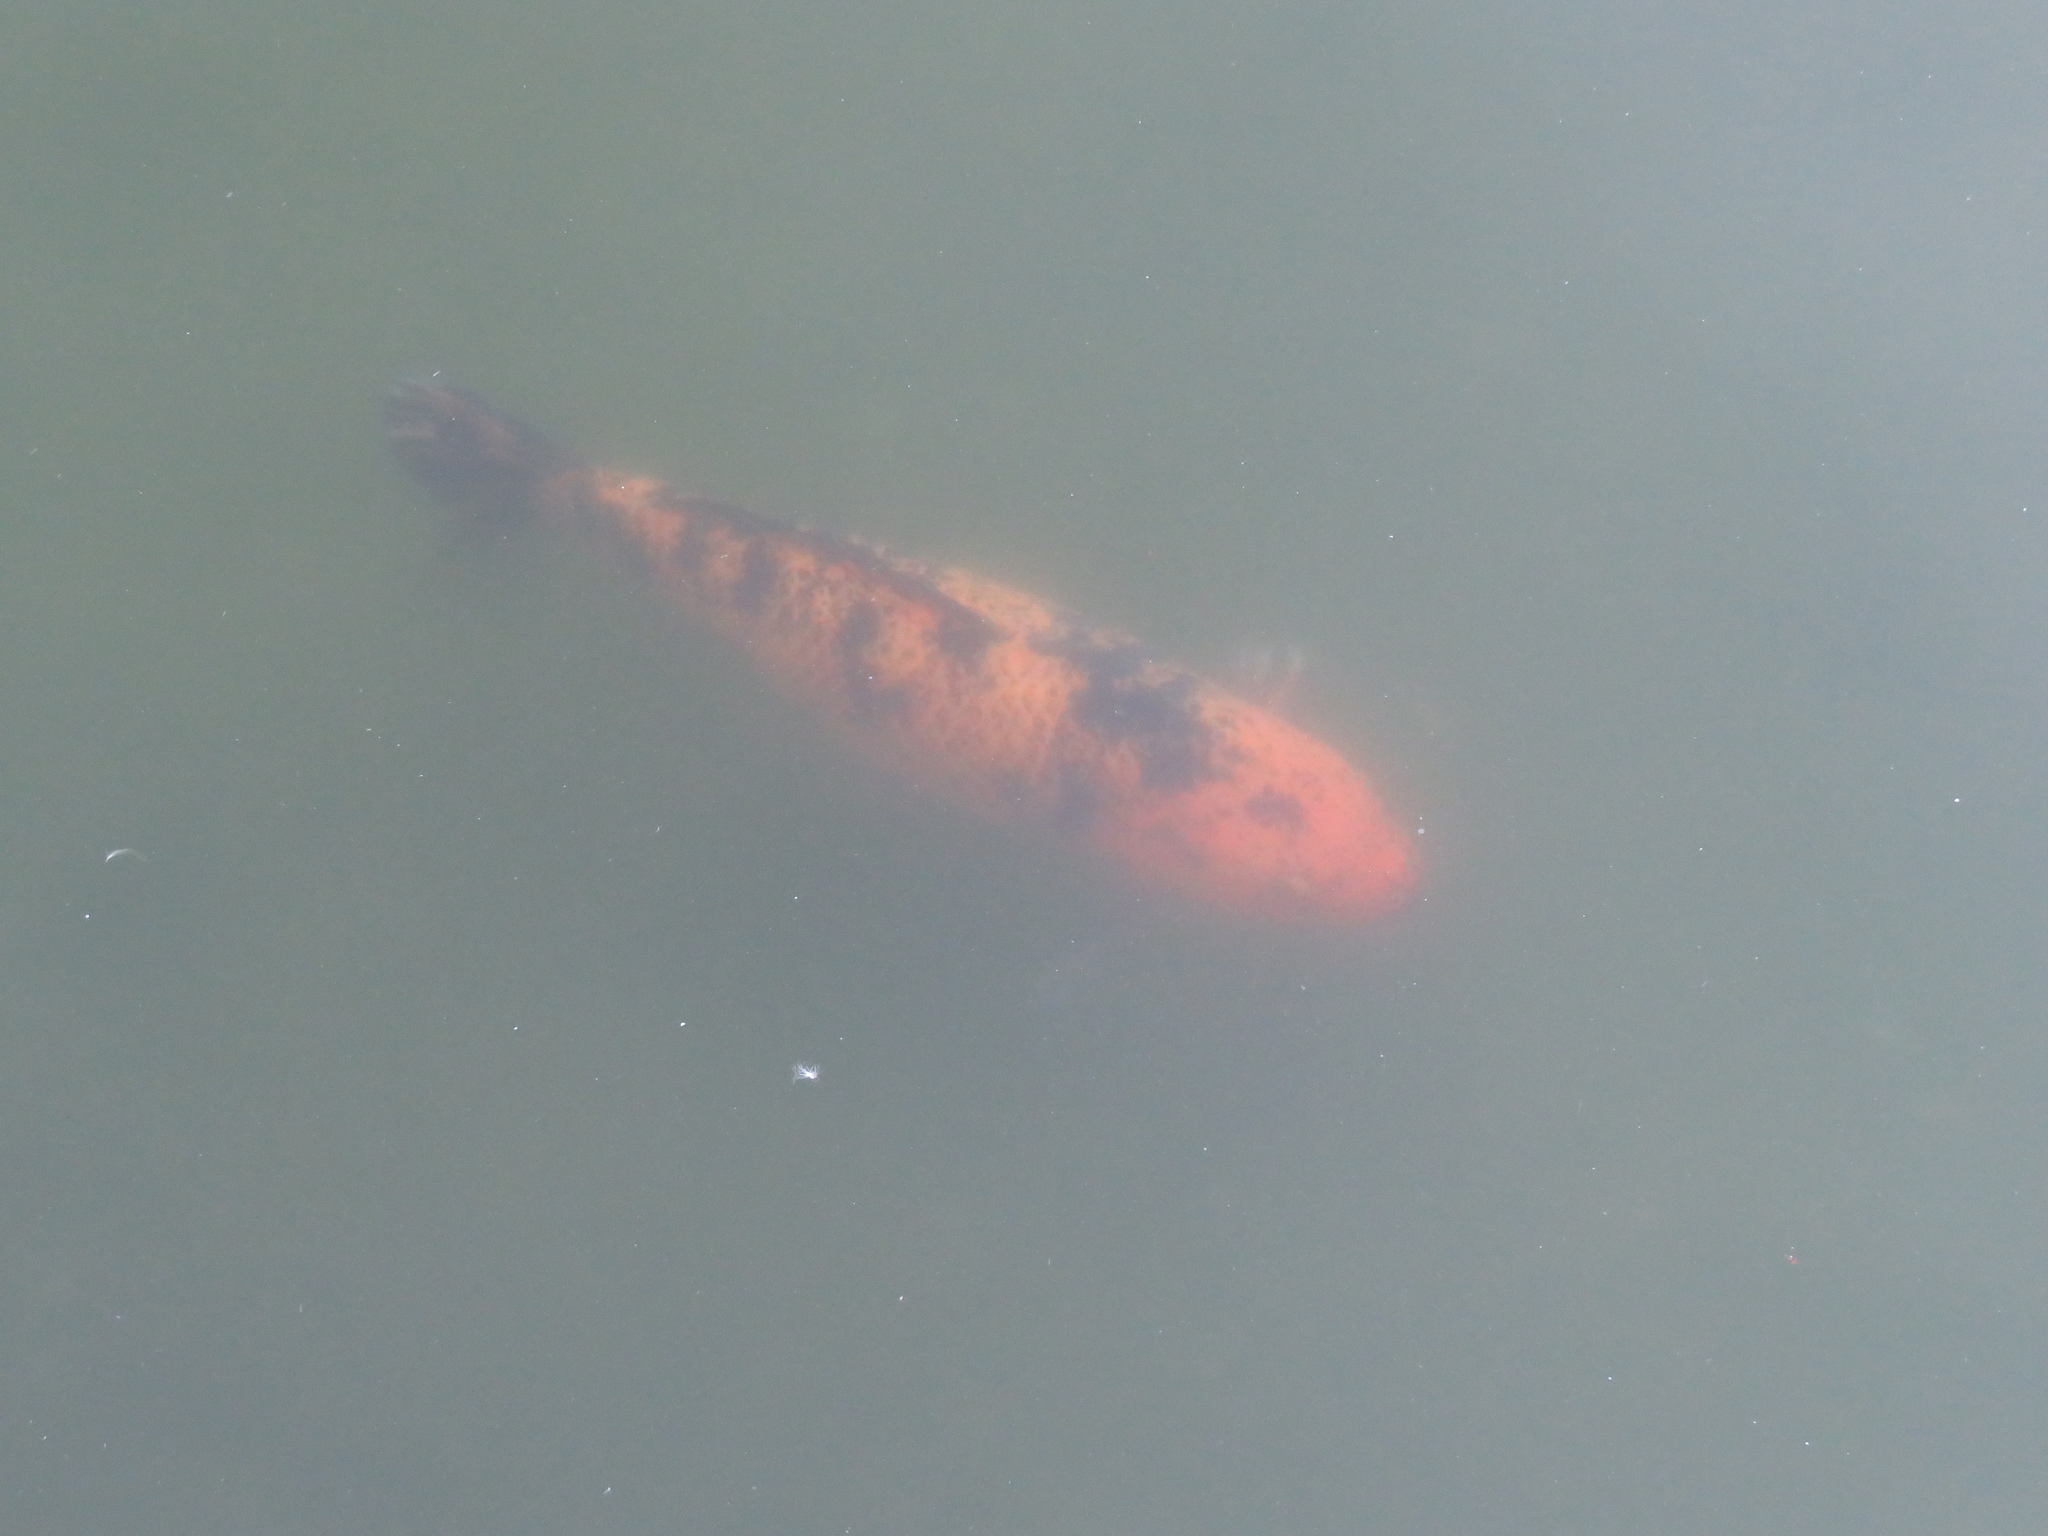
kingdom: Animalia
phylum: Chordata
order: Cypriniformes
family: Cyprinidae
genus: Cyprinus
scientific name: Cyprinus rubrofuscus
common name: Koi
